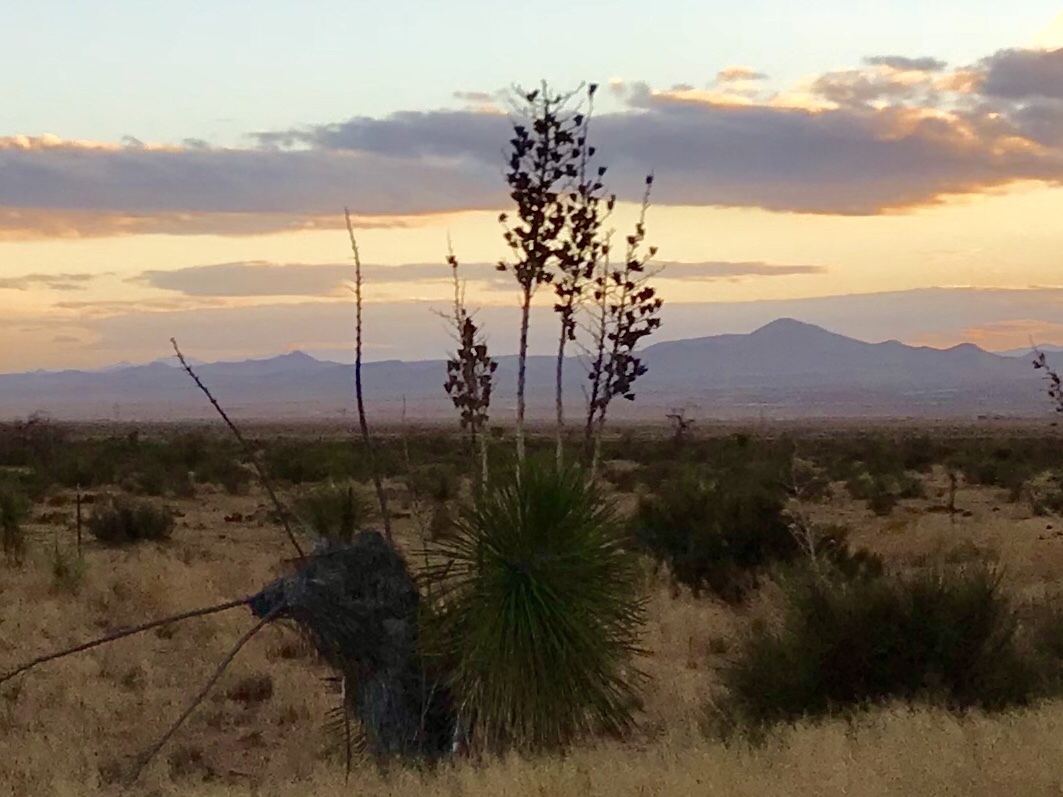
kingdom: Plantae
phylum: Tracheophyta
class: Liliopsida
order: Asparagales
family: Asparagaceae
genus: Yucca
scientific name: Yucca elata
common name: Palmella
